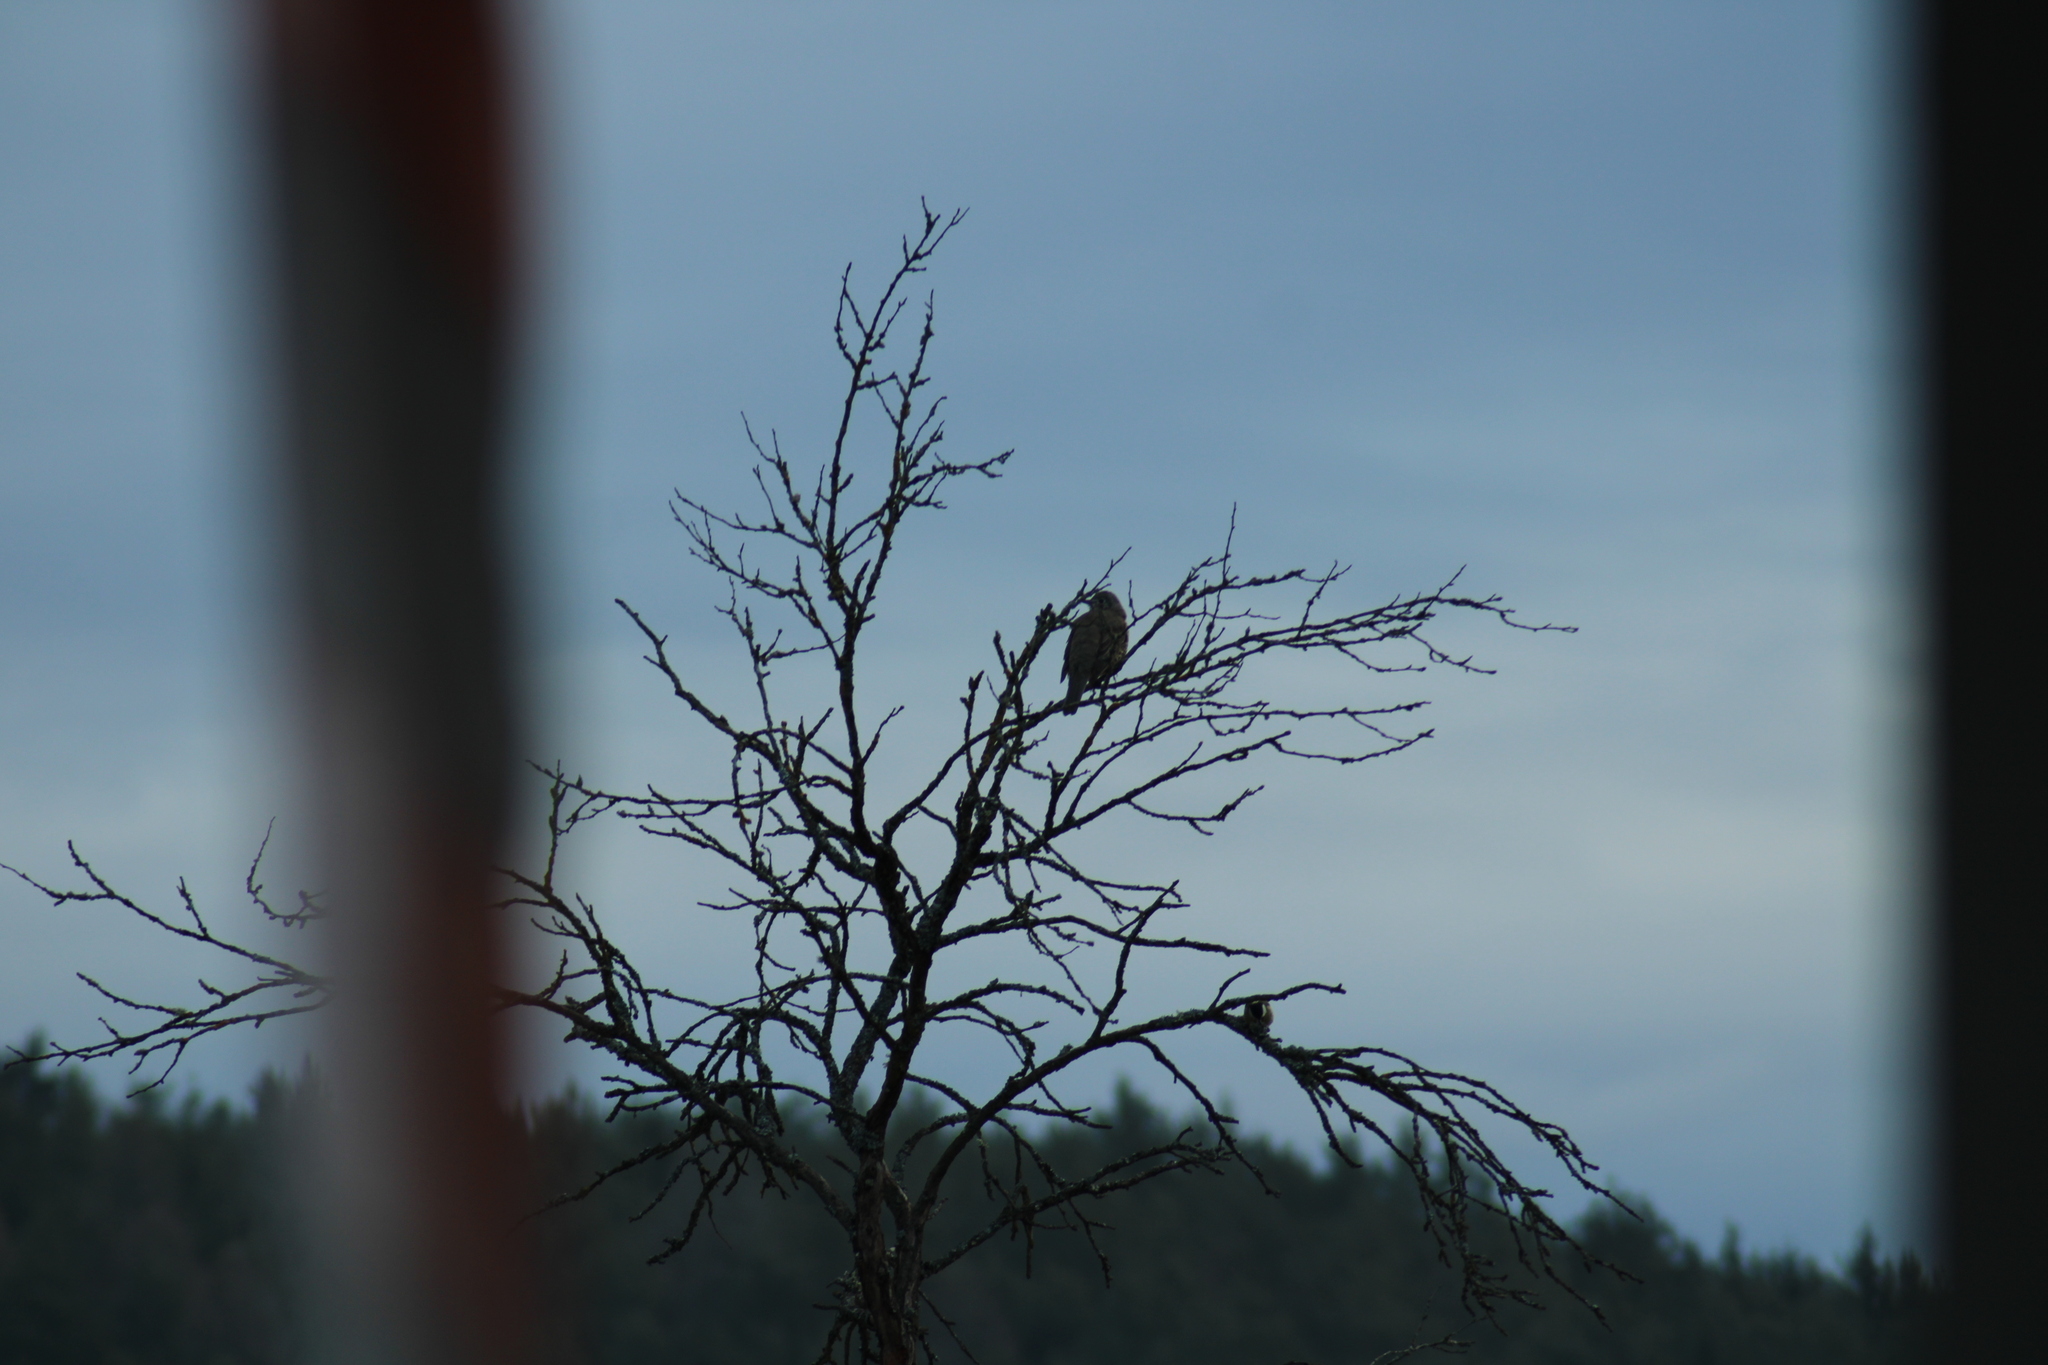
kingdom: Animalia
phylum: Chordata
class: Aves
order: Passeriformes
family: Turdidae
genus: Turdus
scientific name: Turdus viscivorus
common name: Mistle thrush
